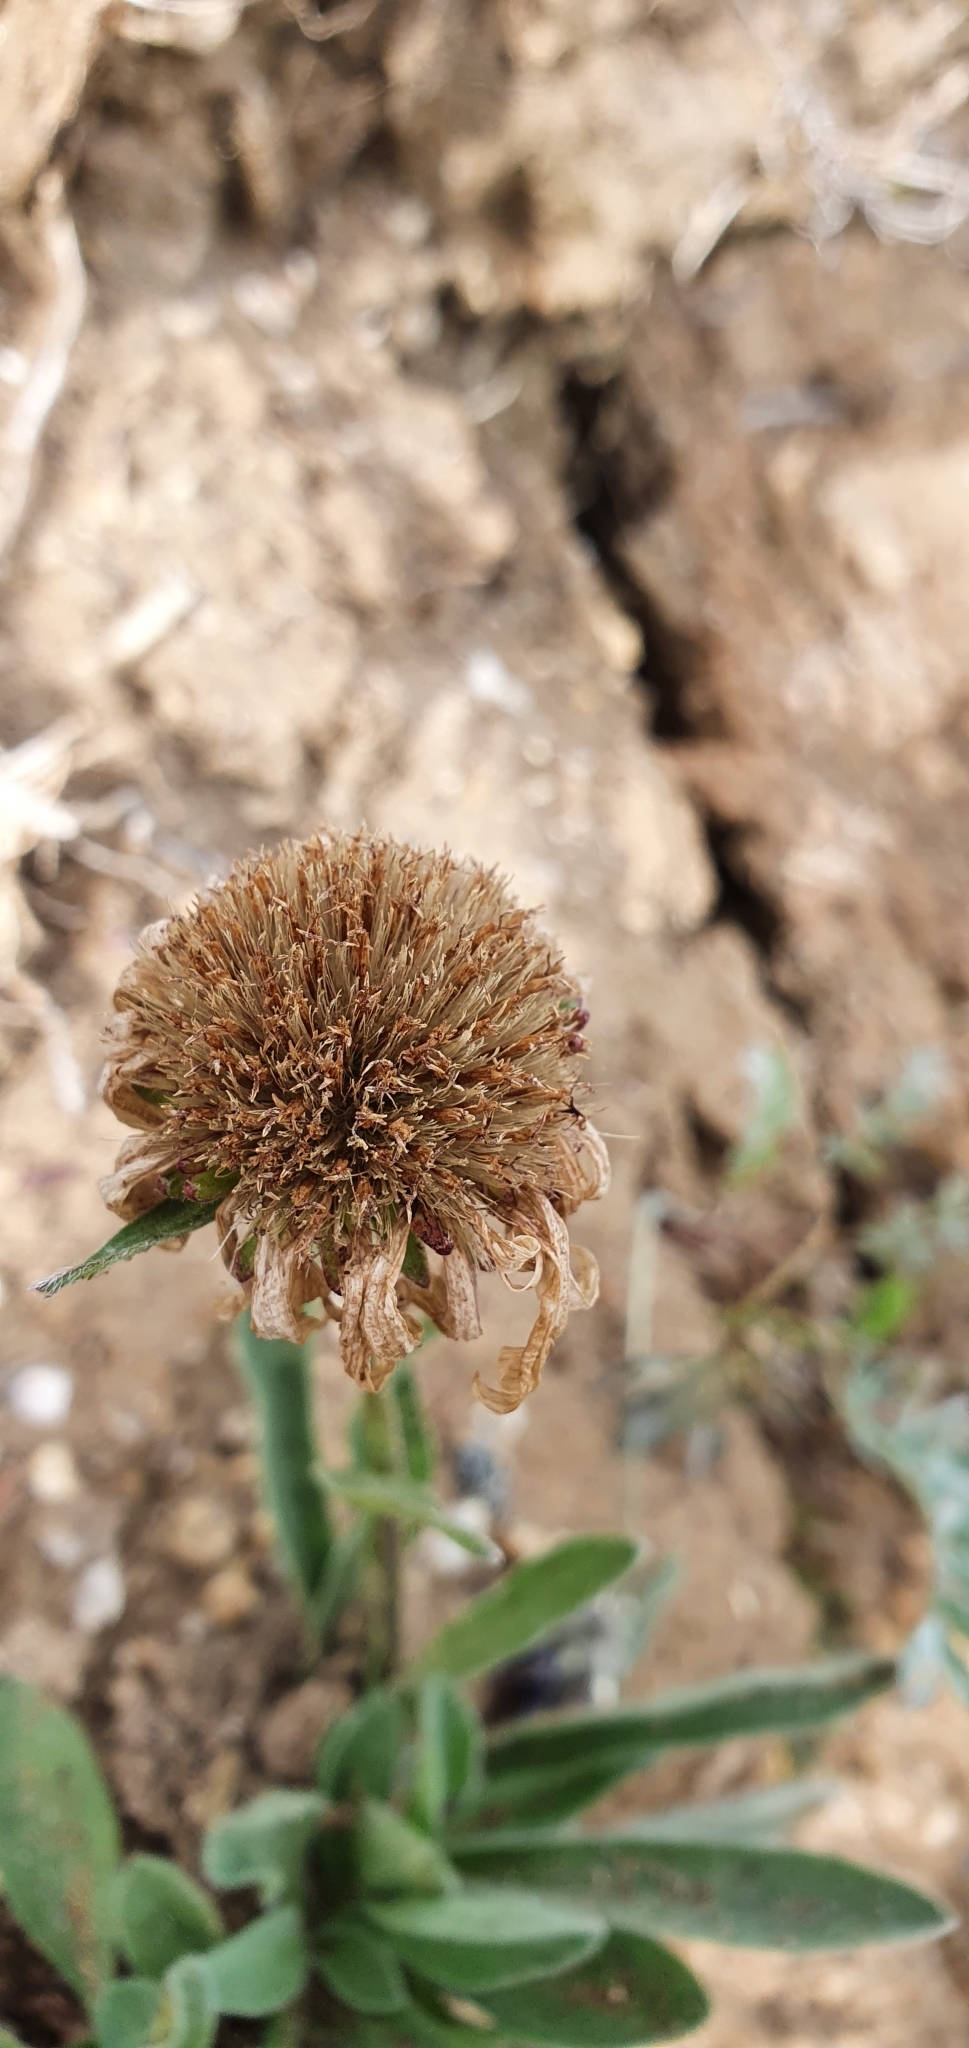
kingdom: Plantae
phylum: Tracheophyta
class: Magnoliopsida
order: Asterales
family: Asteraceae
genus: Aster
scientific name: Aster alpinus
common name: Alpine aster
